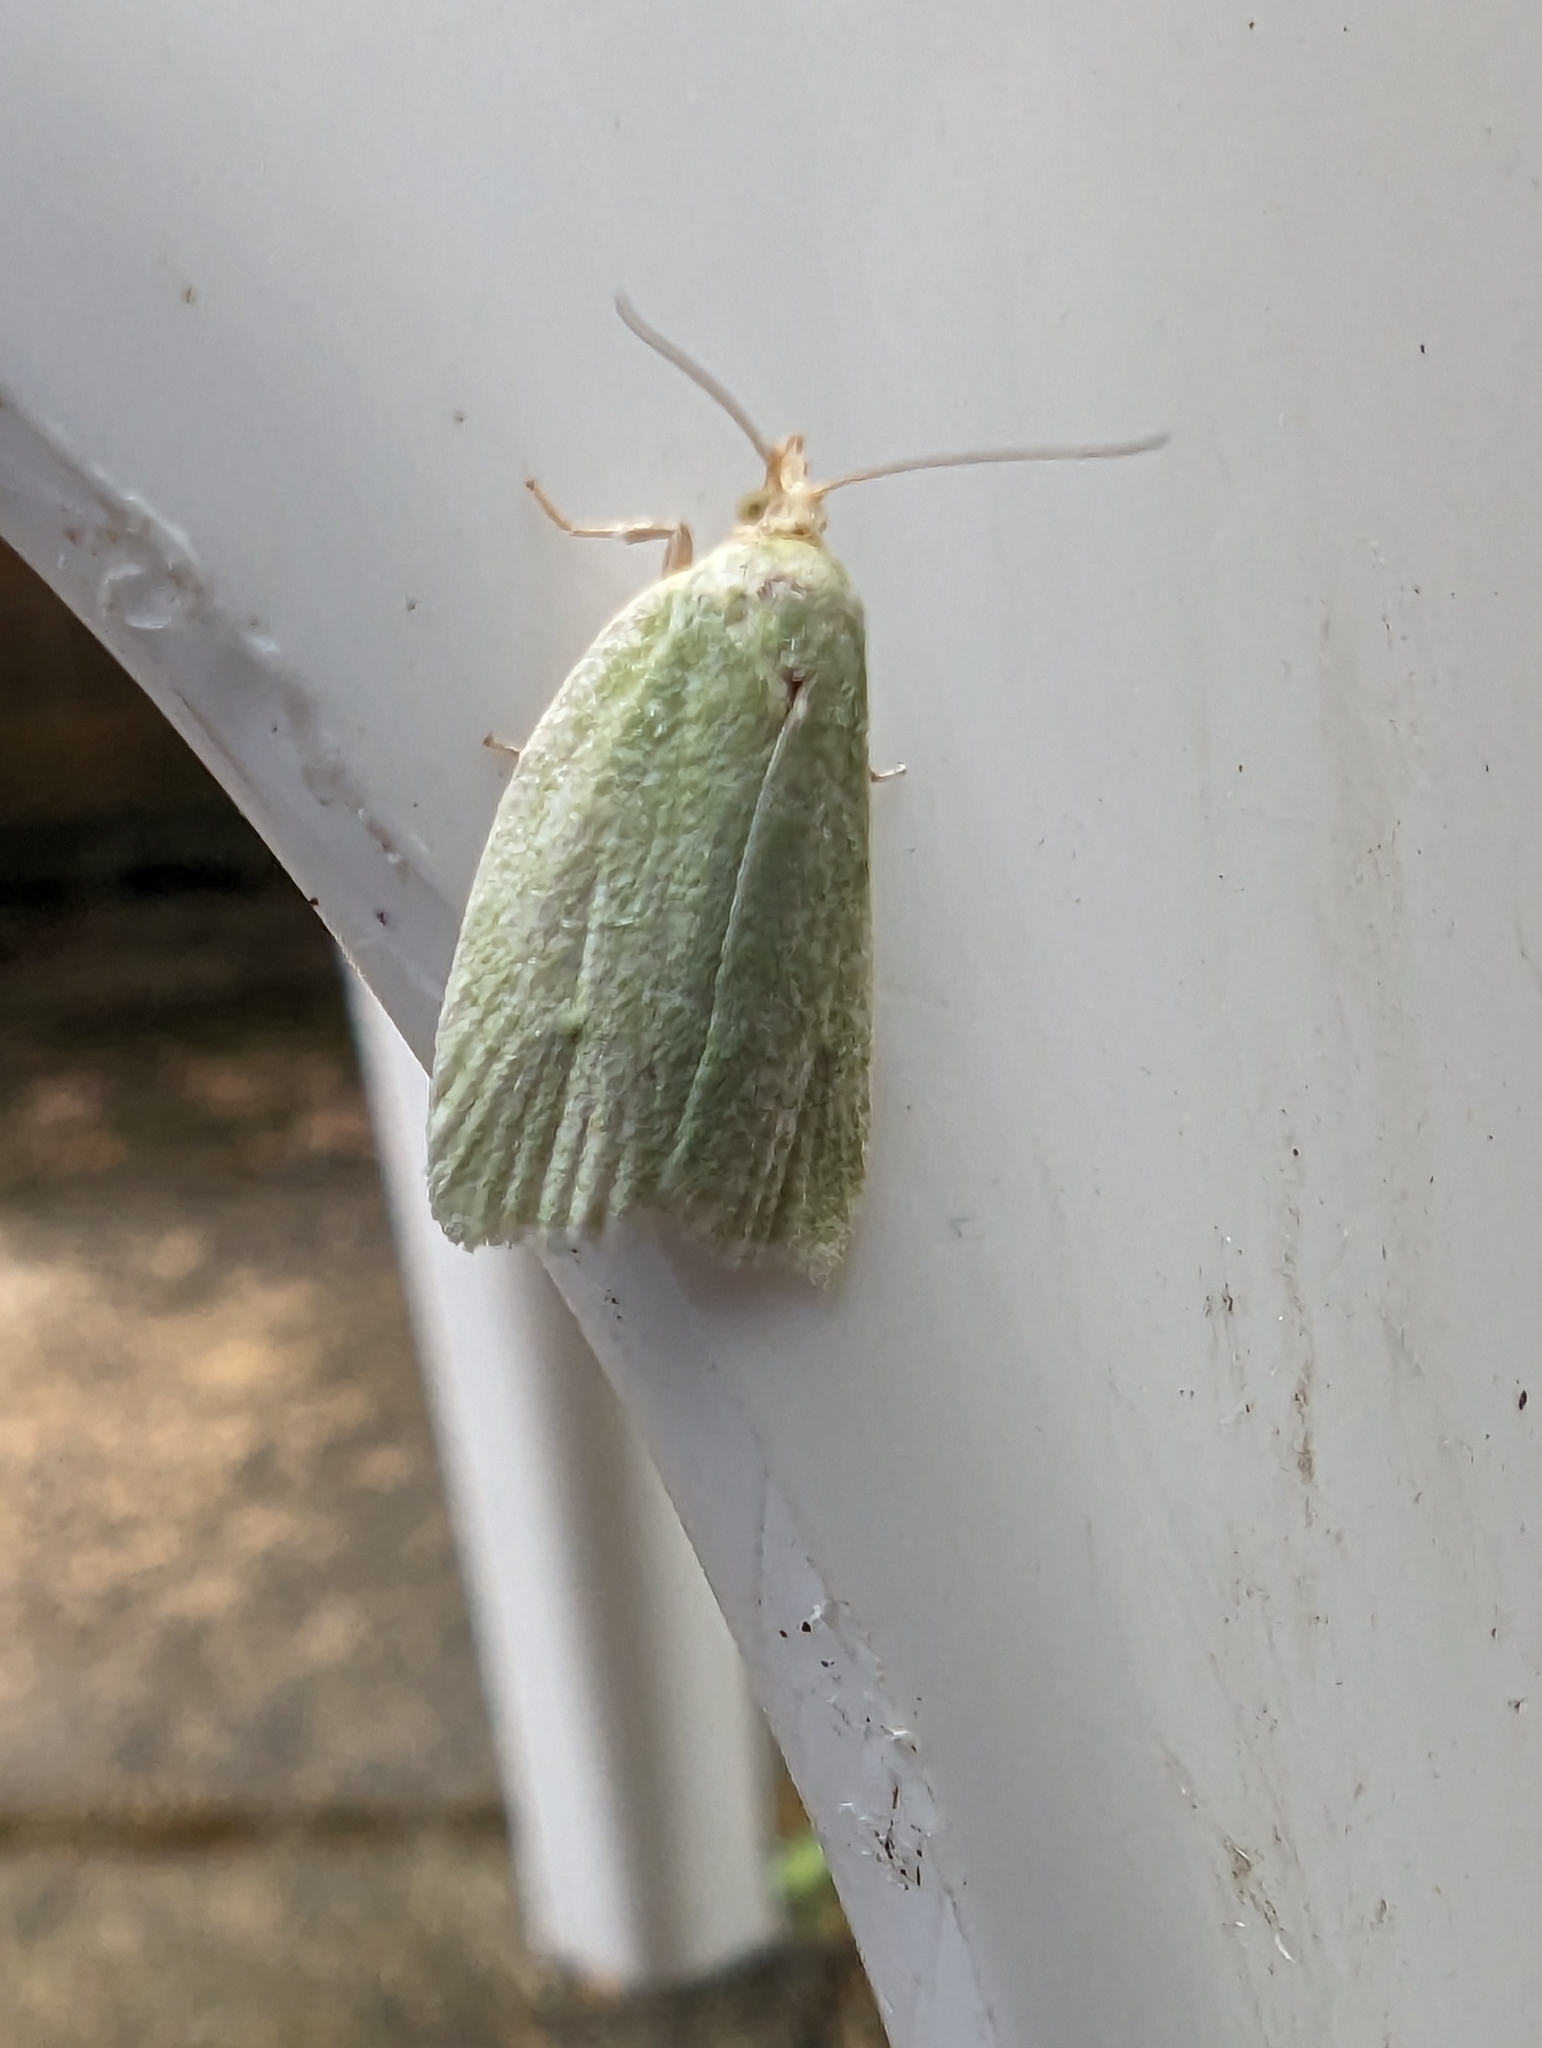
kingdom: Animalia
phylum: Arthropoda
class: Insecta
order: Lepidoptera
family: Tortricidae
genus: Tortrix
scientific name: Tortrix viridana
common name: Green oak tortrix
